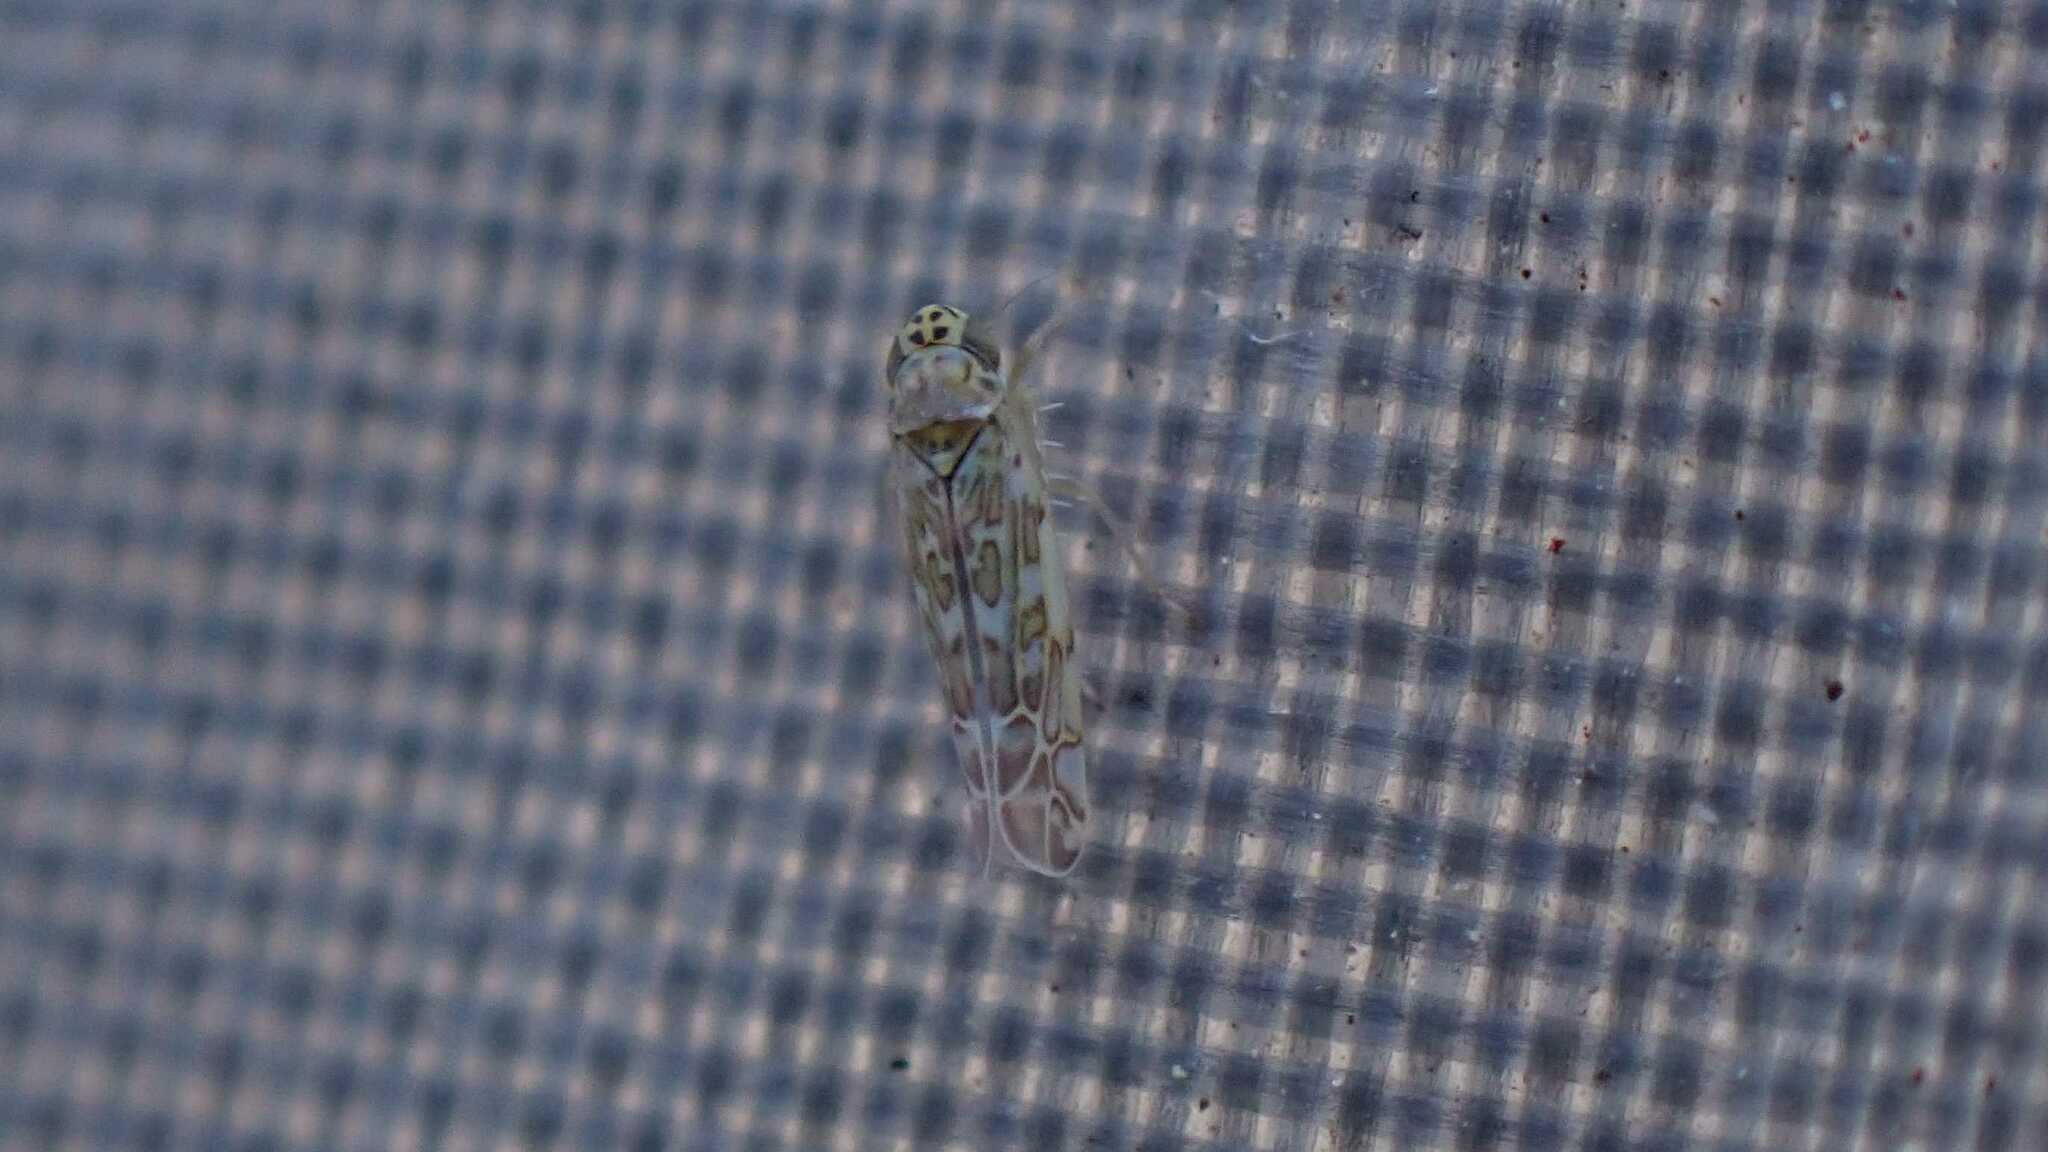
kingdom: Animalia
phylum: Arthropoda
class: Insecta
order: Hemiptera
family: Cicadellidae
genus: Eupteryx
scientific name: Eupteryx decemnotata
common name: Ligurian leafhopper
